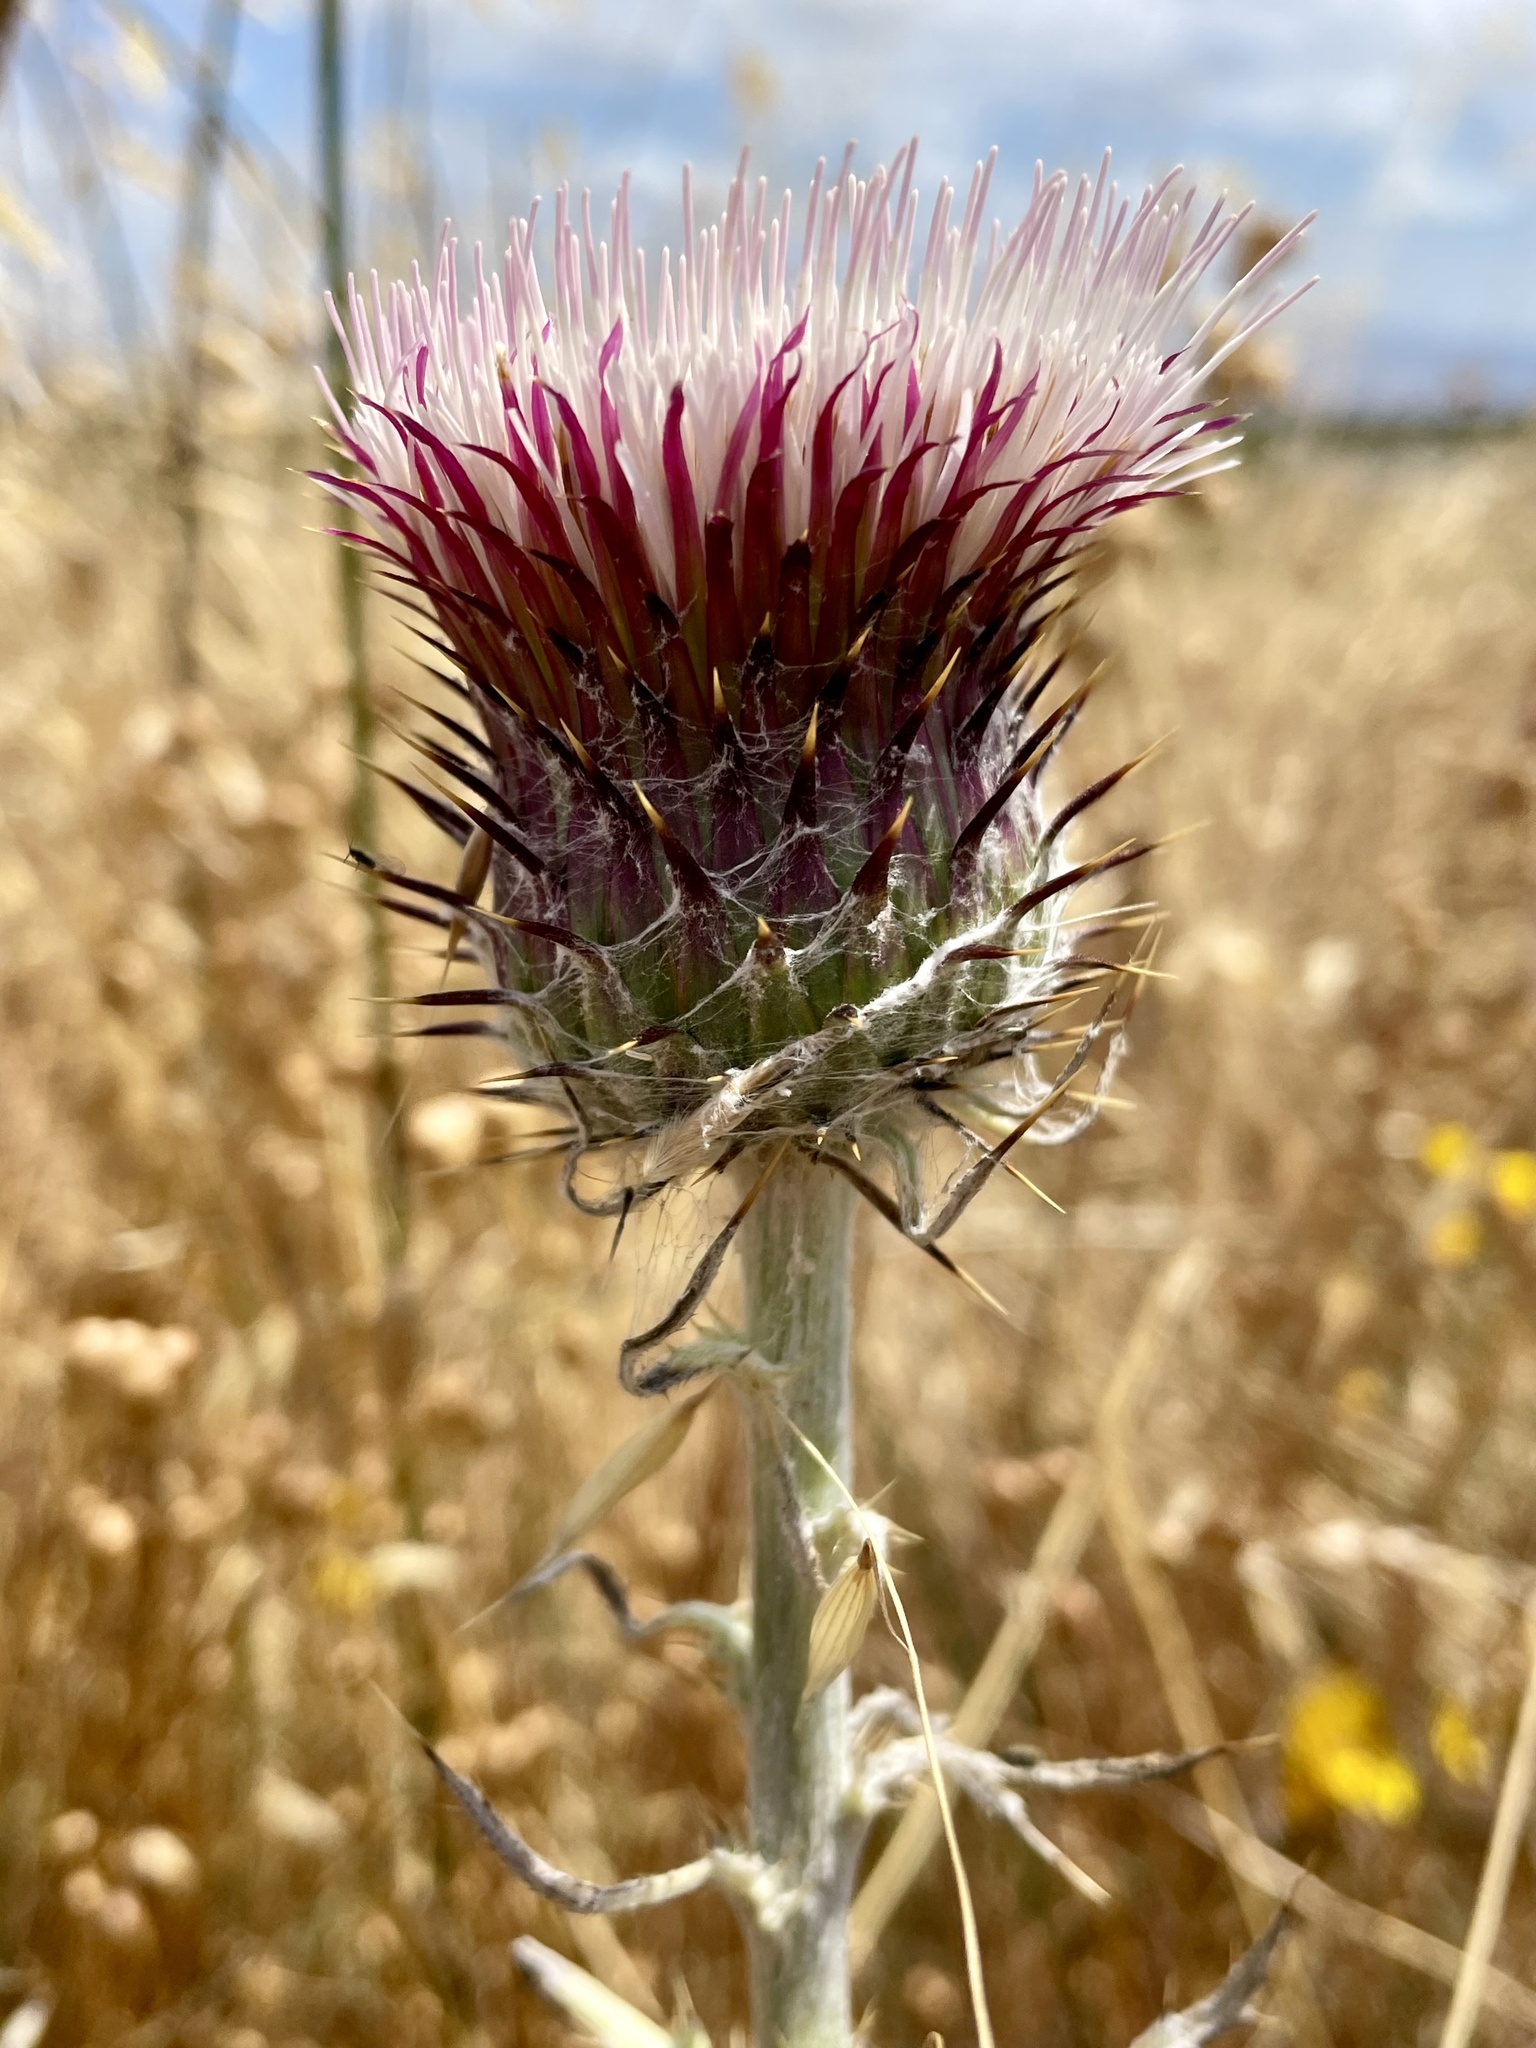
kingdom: Plantae
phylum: Tracheophyta
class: Magnoliopsida
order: Asterales
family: Asteraceae
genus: Cirsium
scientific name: Cirsium occidentale
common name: Western thistle
